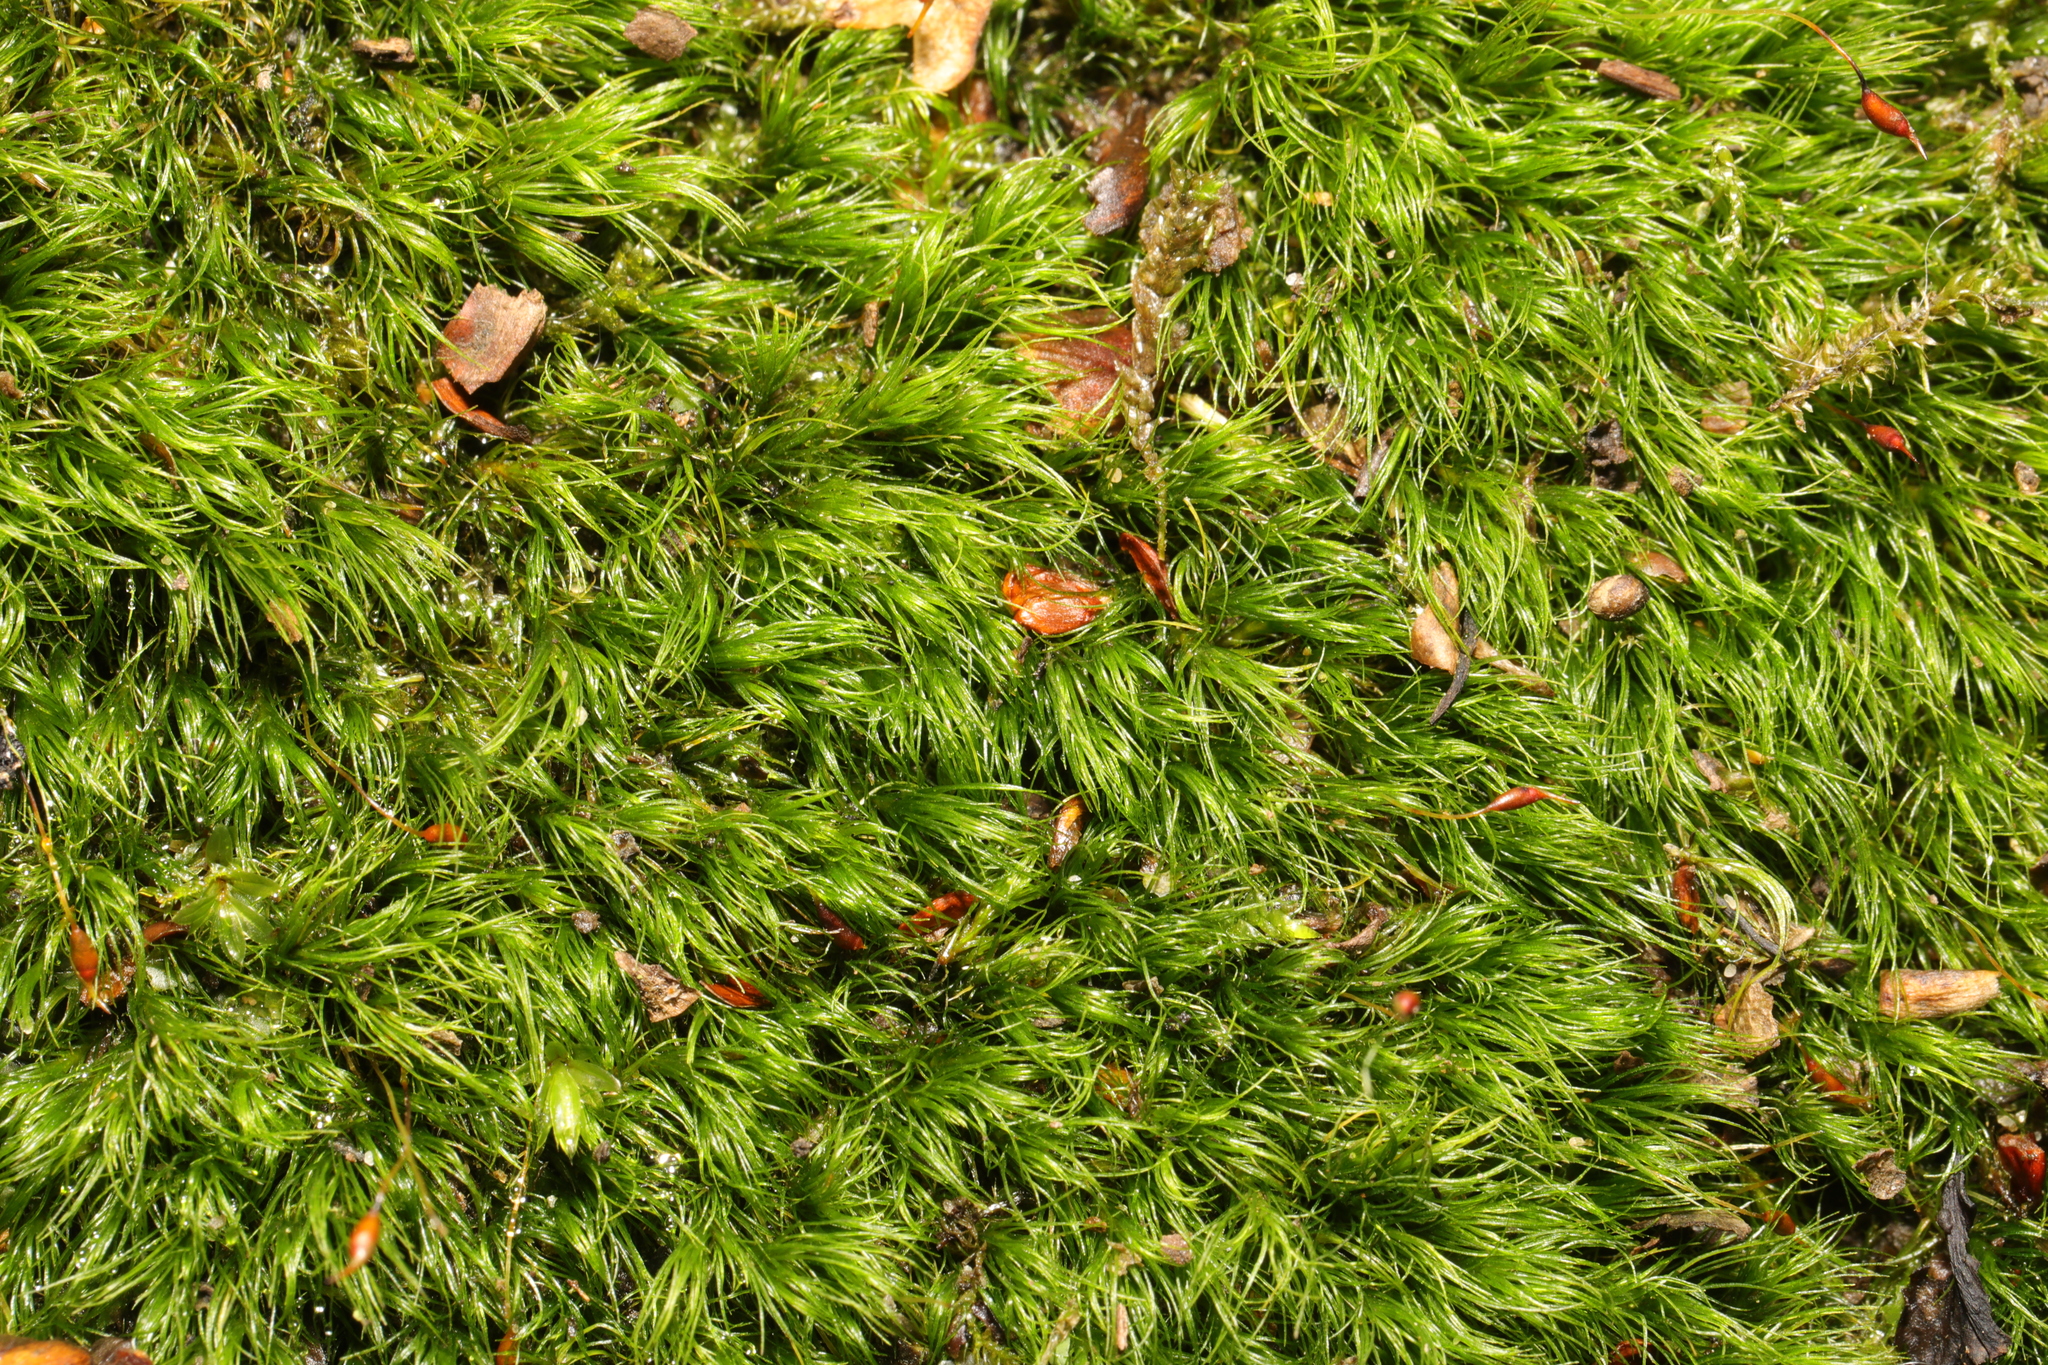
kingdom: Plantae
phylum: Bryophyta
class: Bryopsida
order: Dicranales
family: Dicranellaceae
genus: Dicranella
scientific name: Dicranella heteromalla
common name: Silky forklet moss
